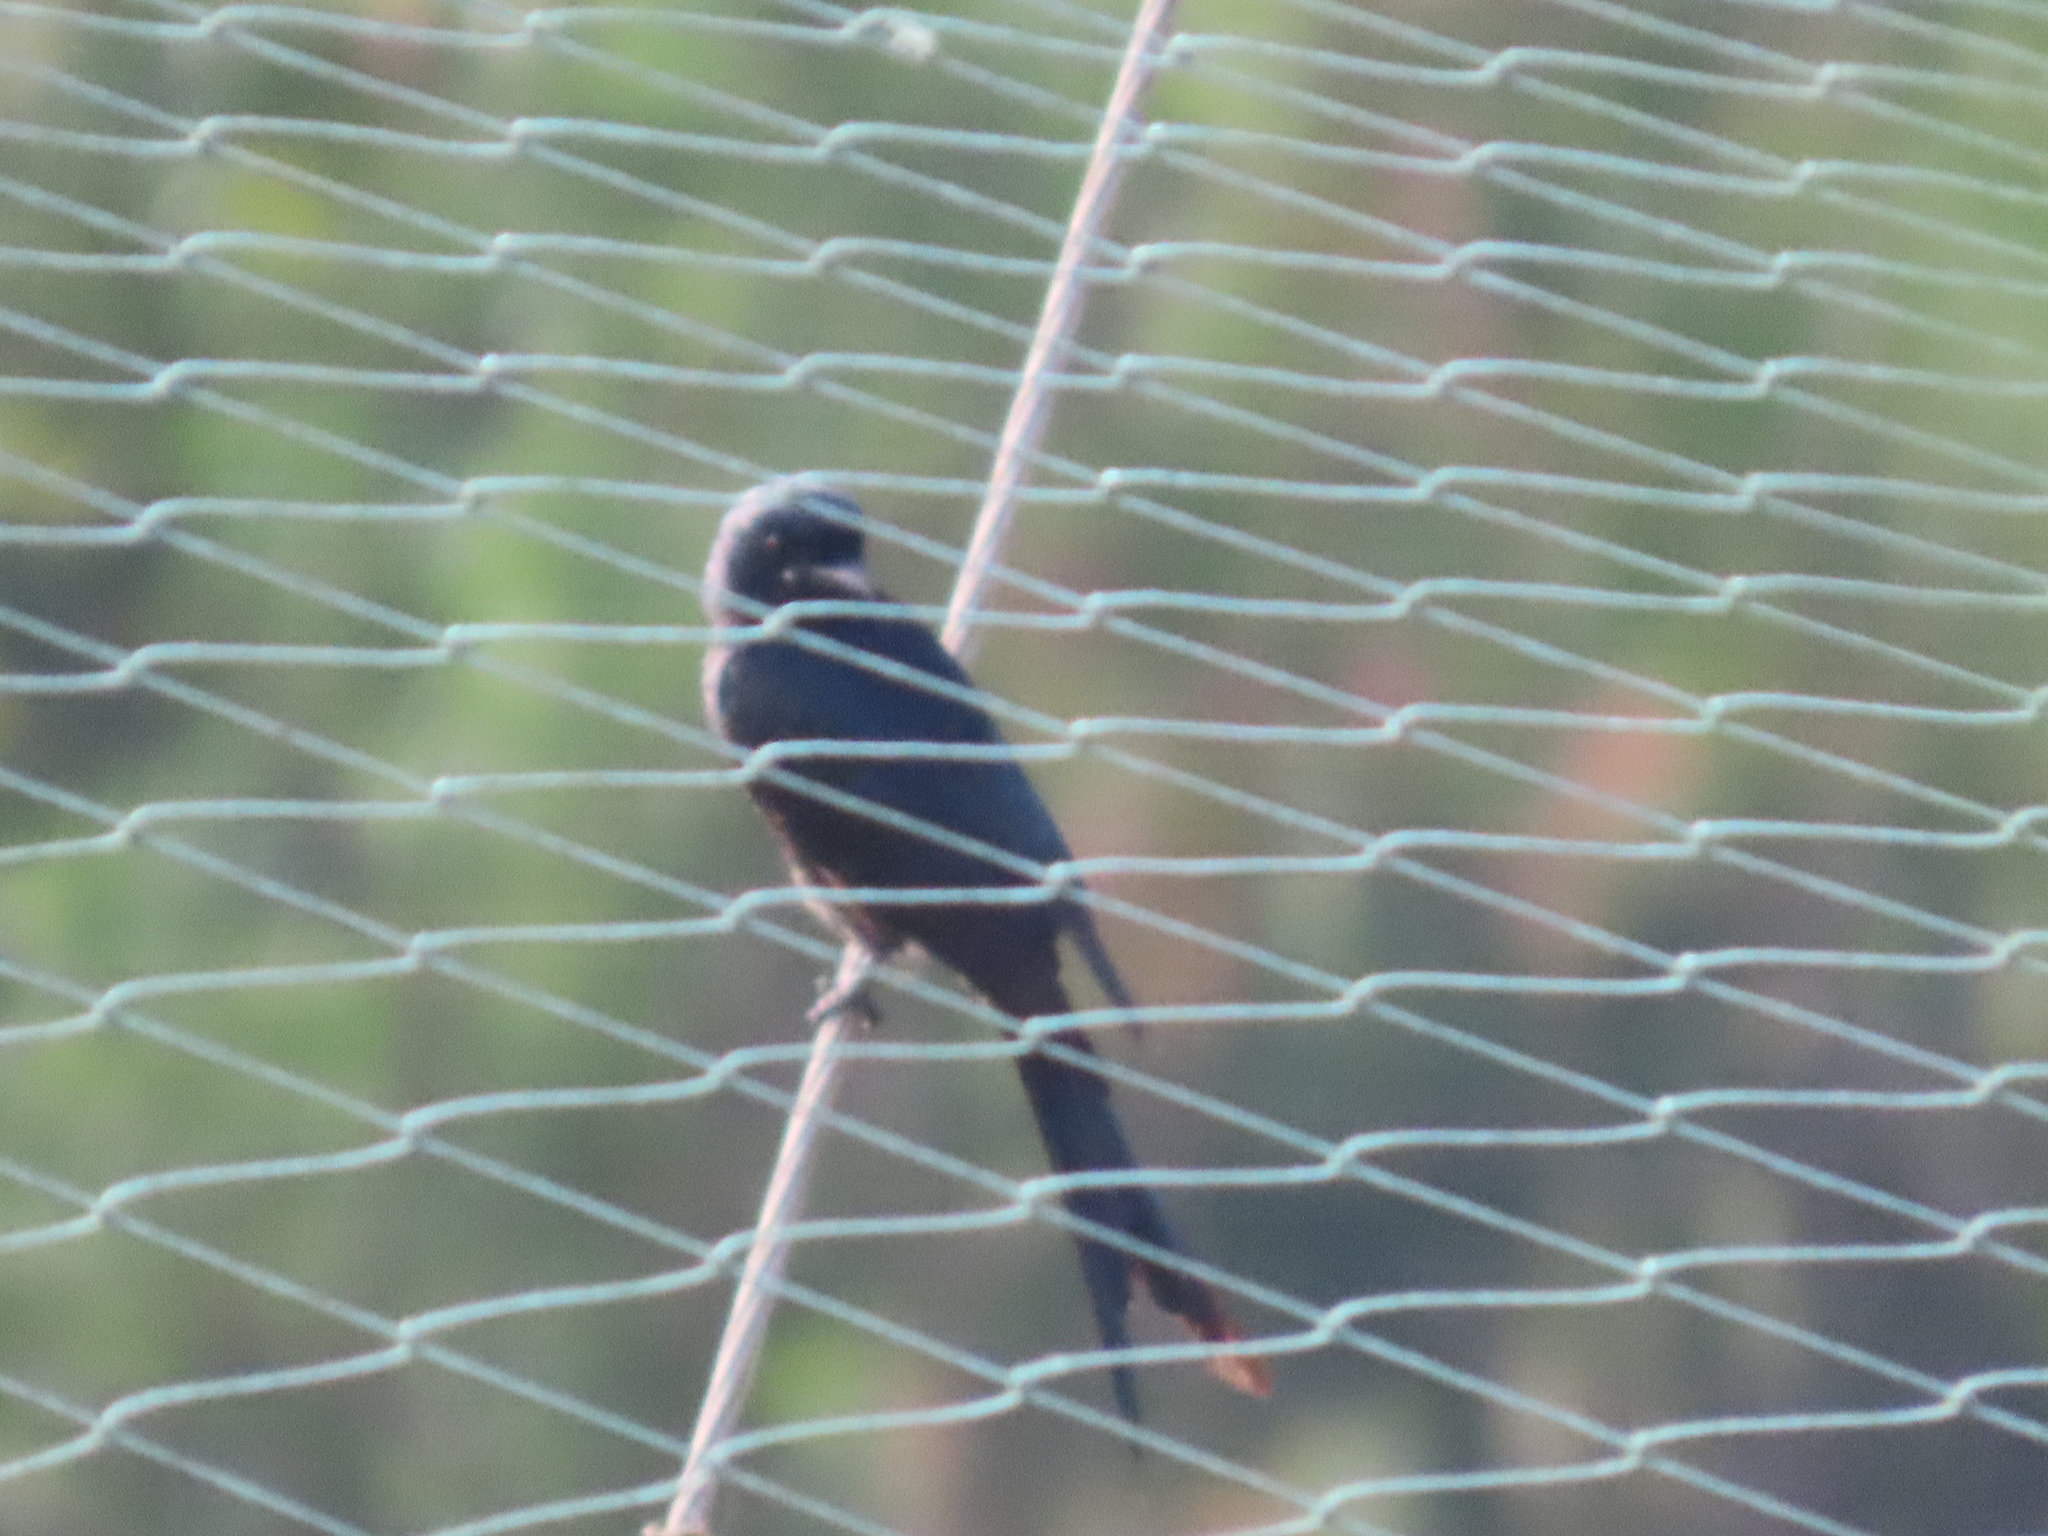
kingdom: Animalia
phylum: Chordata
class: Aves
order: Passeriformes
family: Dicruridae
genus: Dicrurus
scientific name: Dicrurus macrocercus
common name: Black drongo
